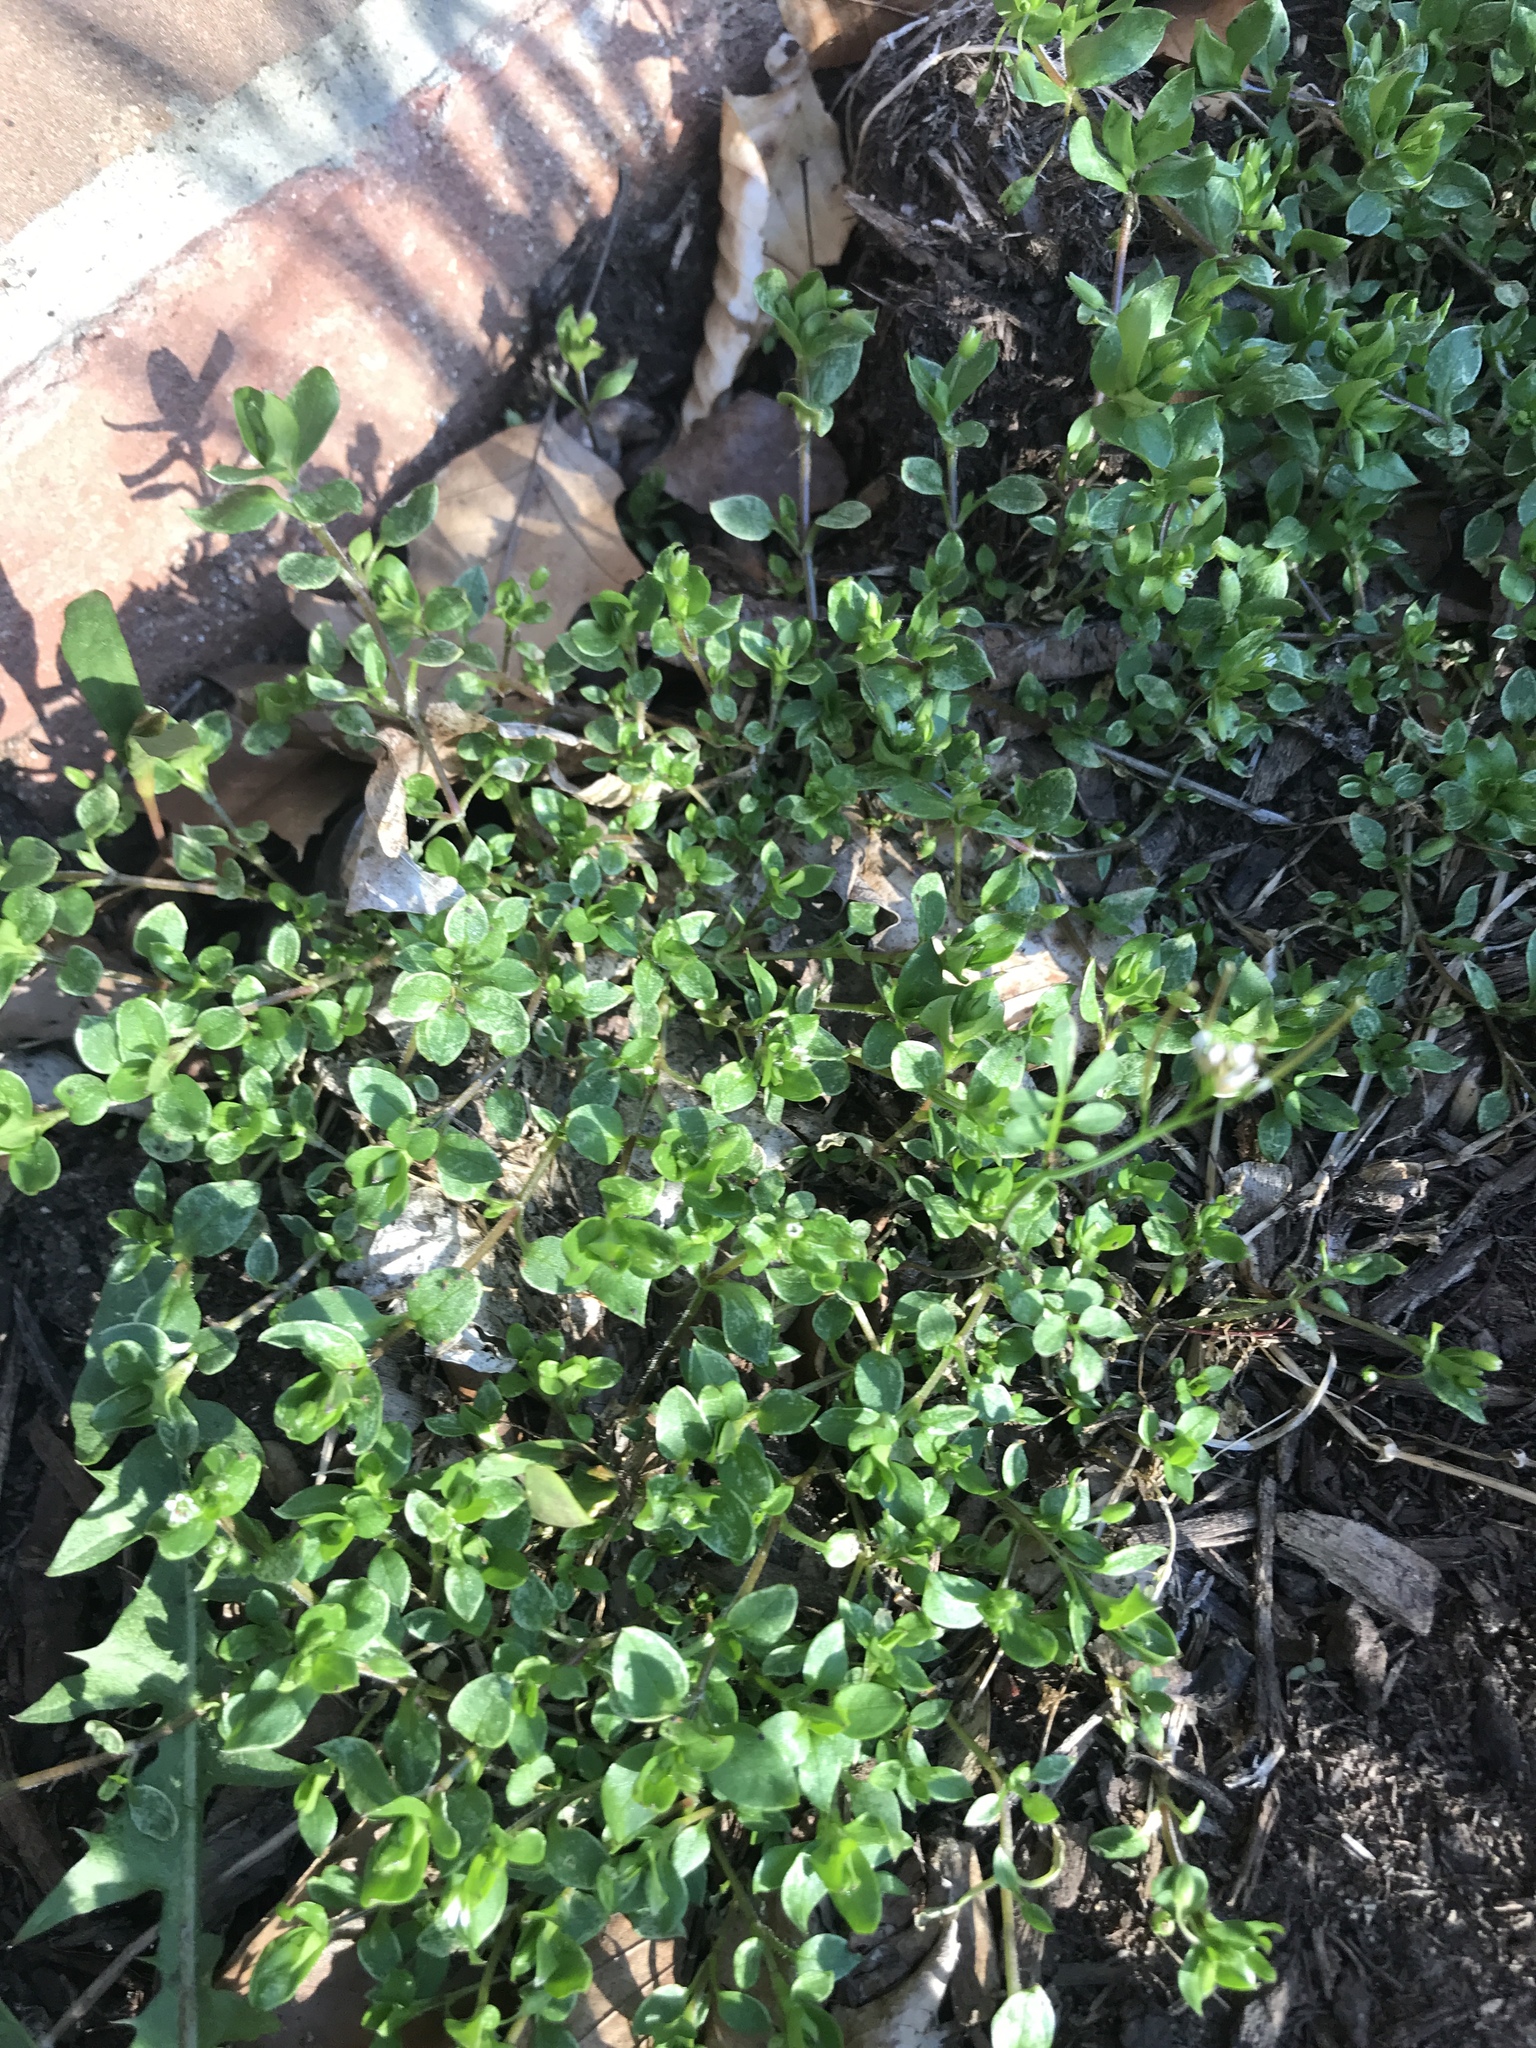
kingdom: Plantae
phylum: Tracheophyta
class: Magnoliopsida
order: Caryophyllales
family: Caryophyllaceae
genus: Stellaria
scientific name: Stellaria media
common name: Common chickweed
